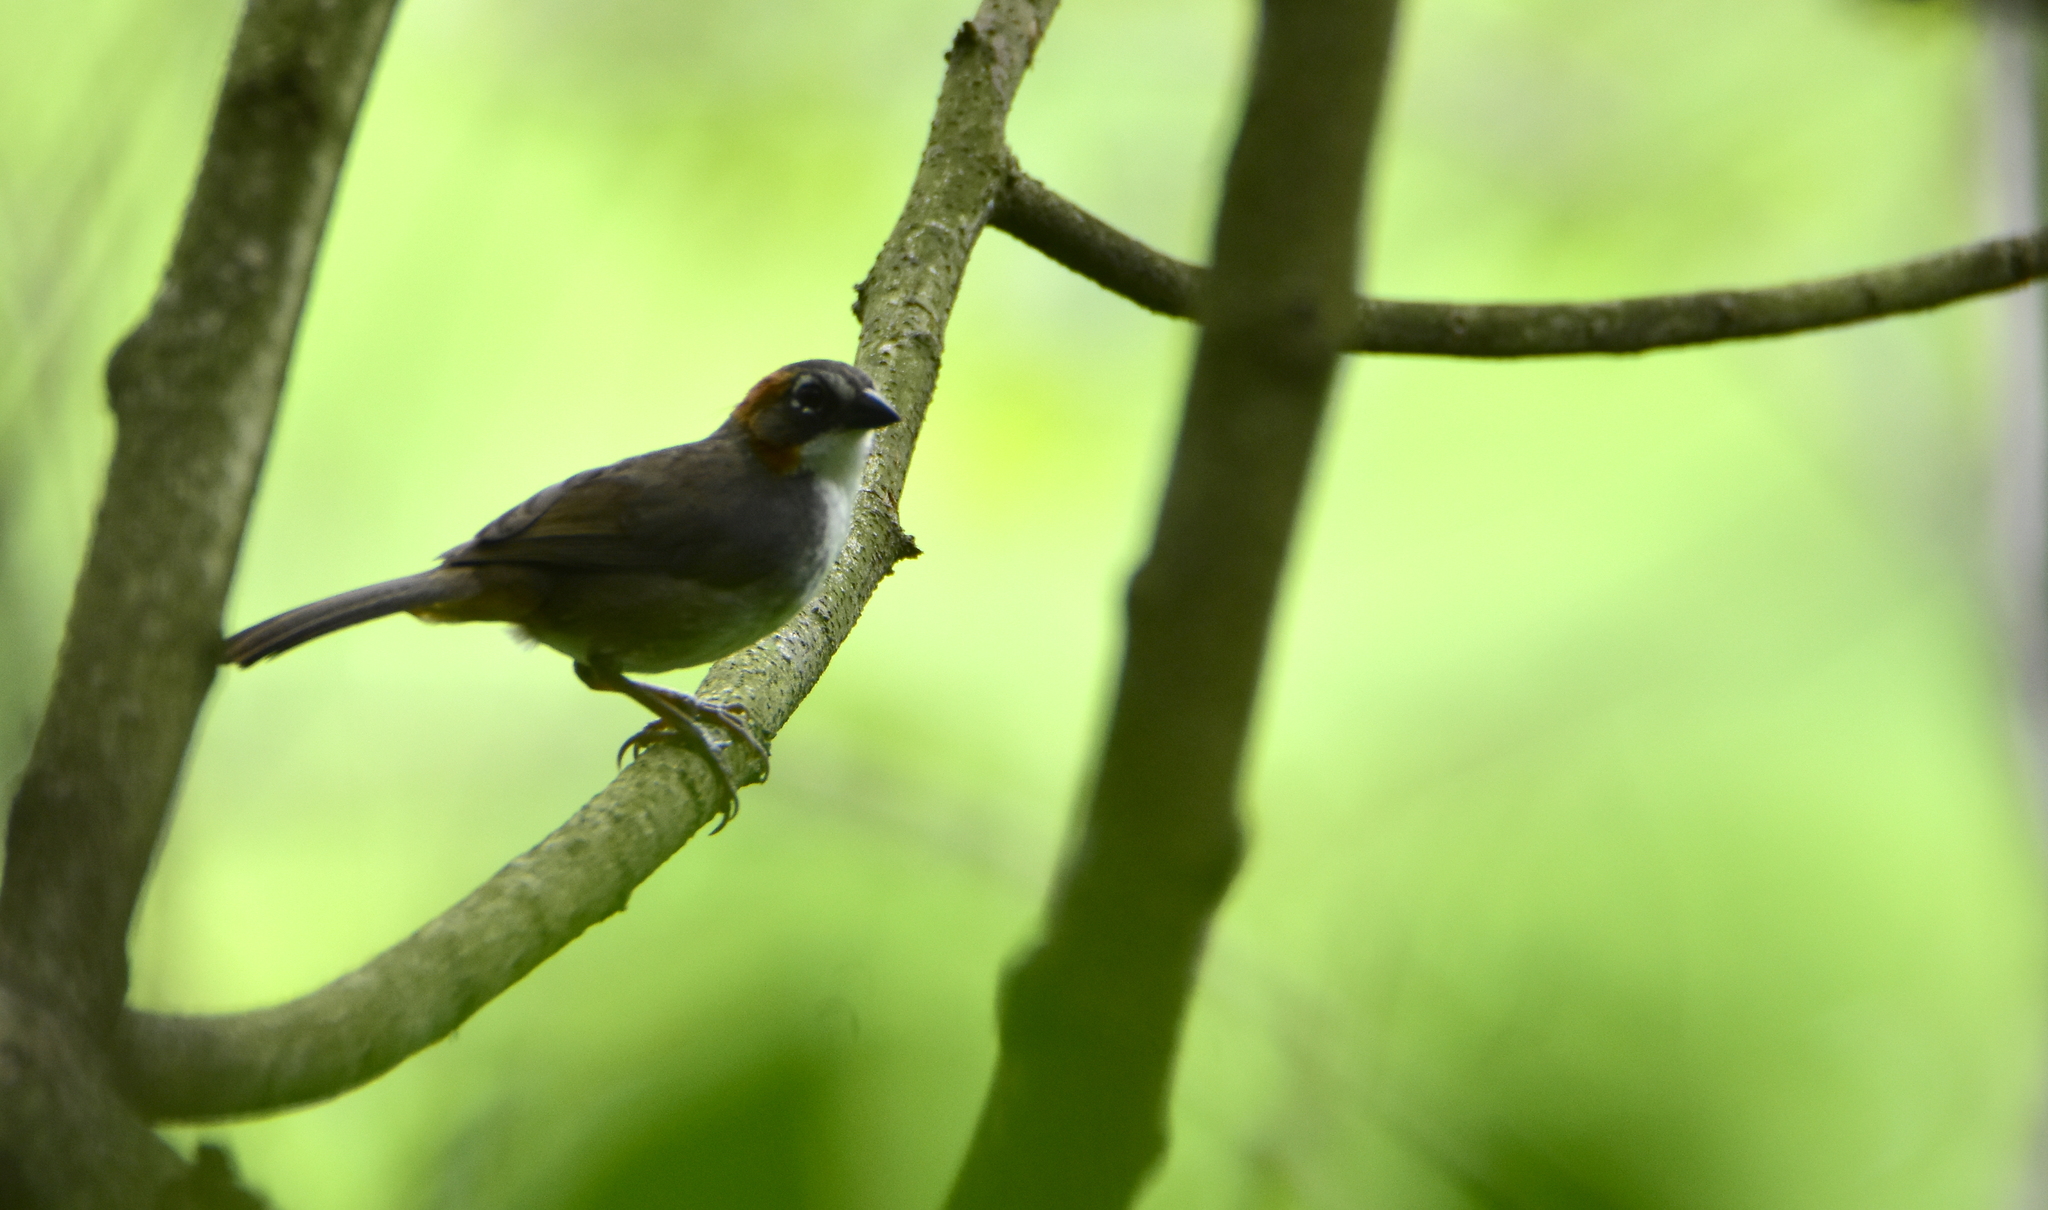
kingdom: Animalia
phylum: Chordata
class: Aves
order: Passeriformes
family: Passerellidae
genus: Melozone
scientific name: Melozone kieneri
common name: Rusty-crowned ground-sparrow
